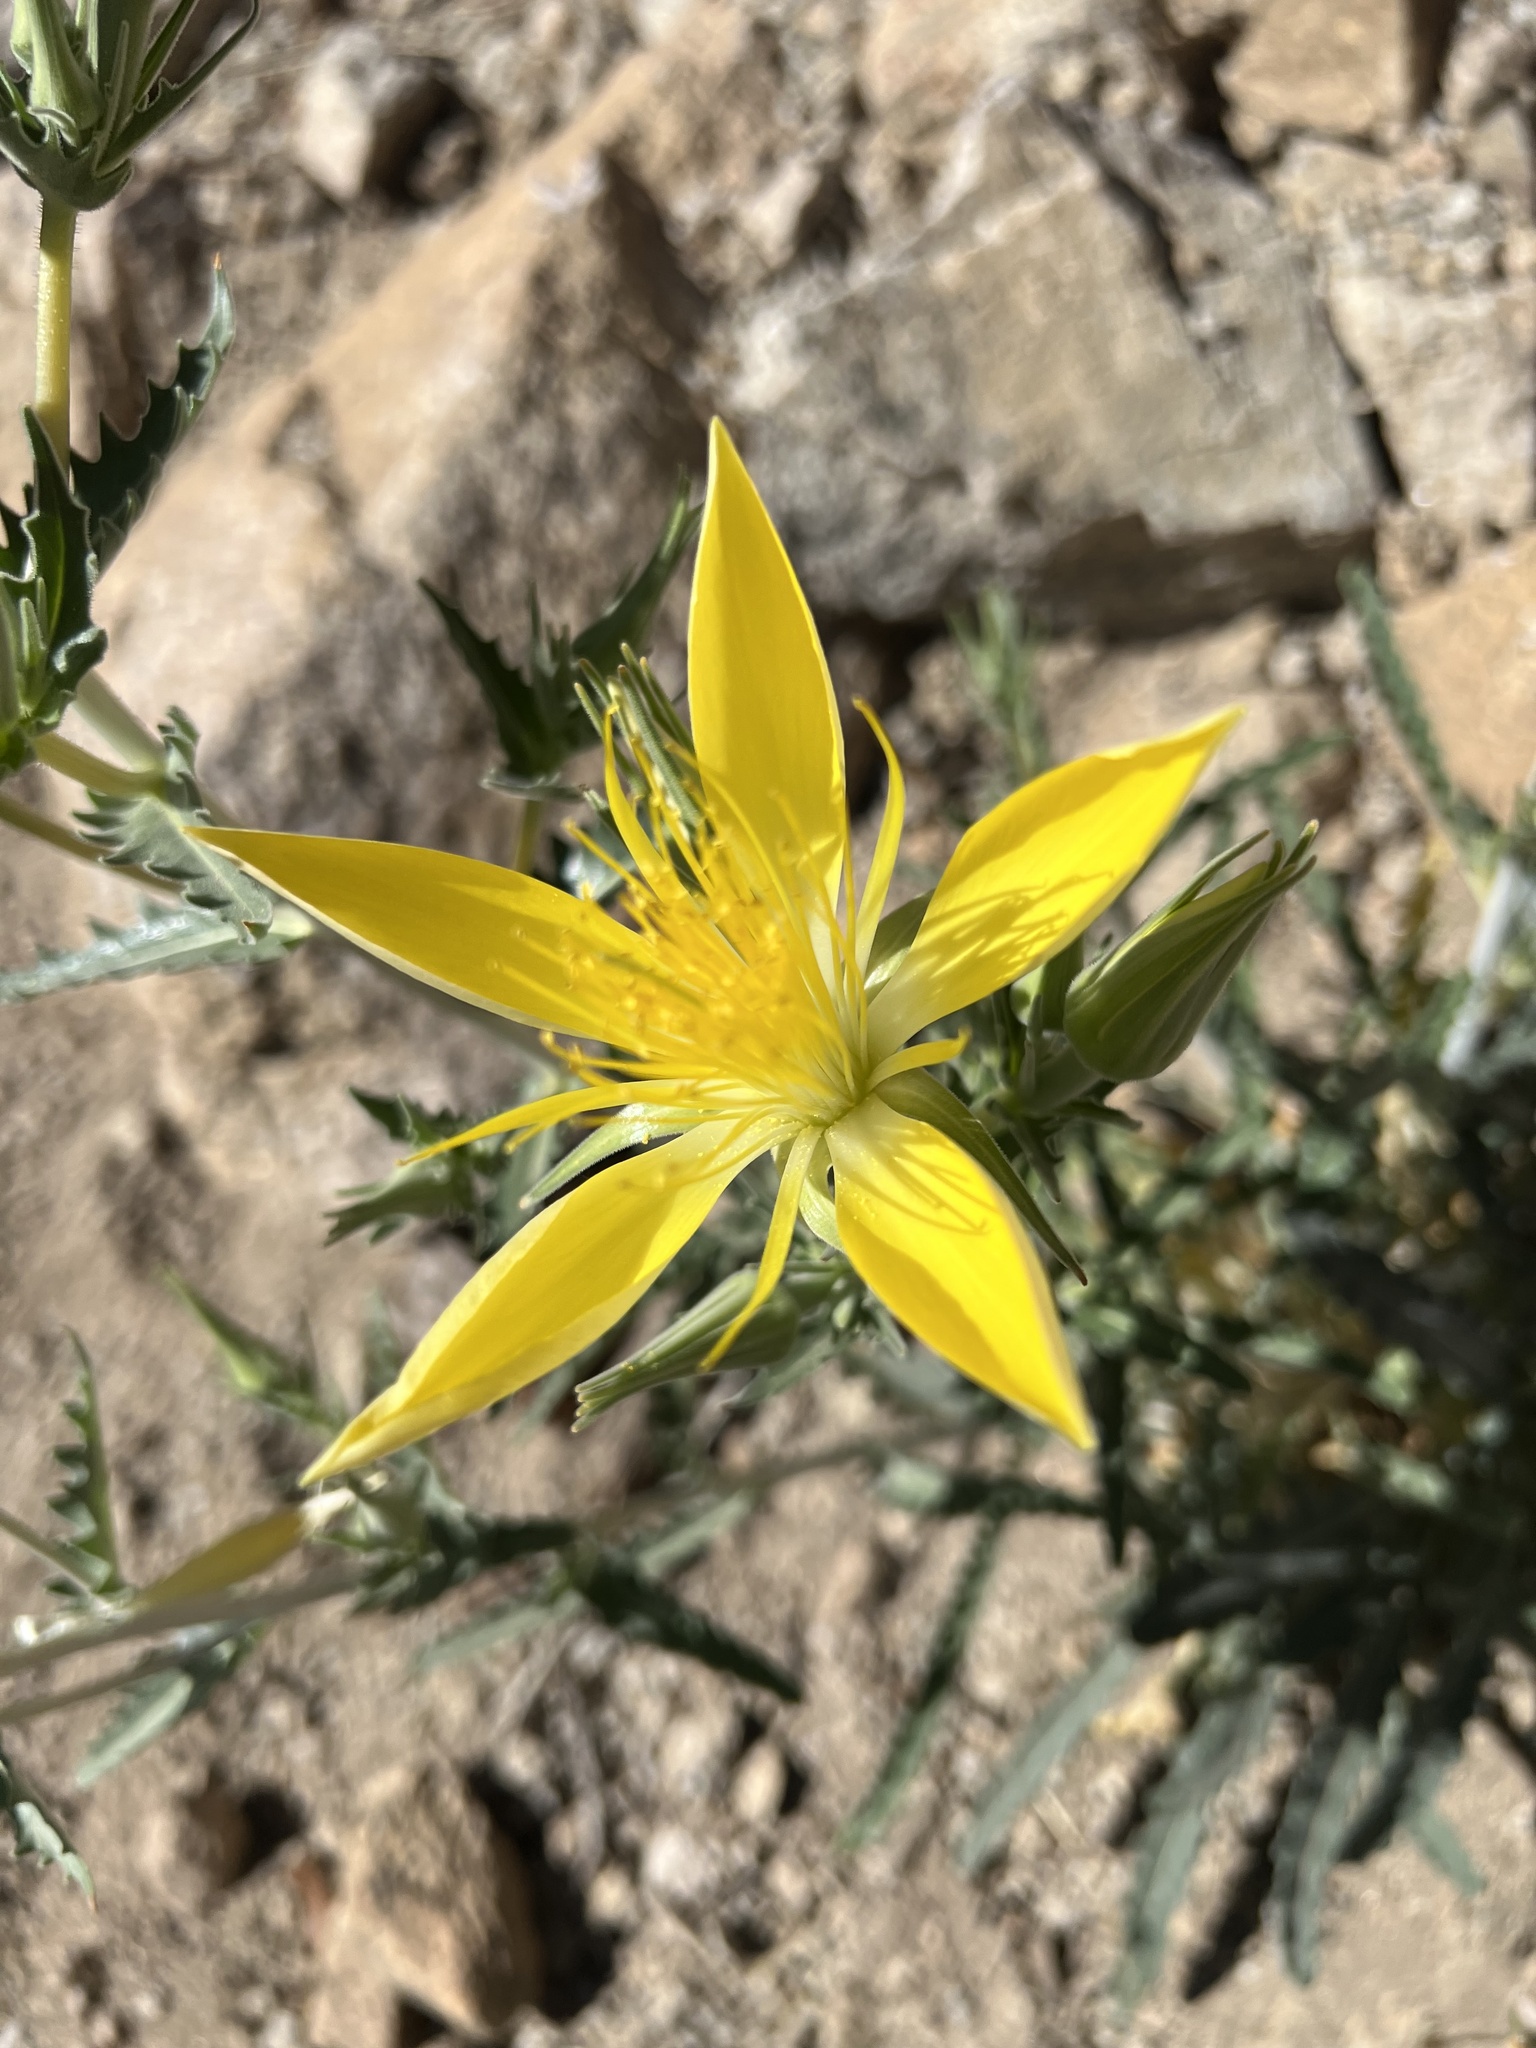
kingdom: Plantae
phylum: Tracheophyta
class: Magnoliopsida
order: Cornales
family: Loasaceae
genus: Mentzelia
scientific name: Mentzelia laevicaulis
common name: Smooth-stem blazingstar
